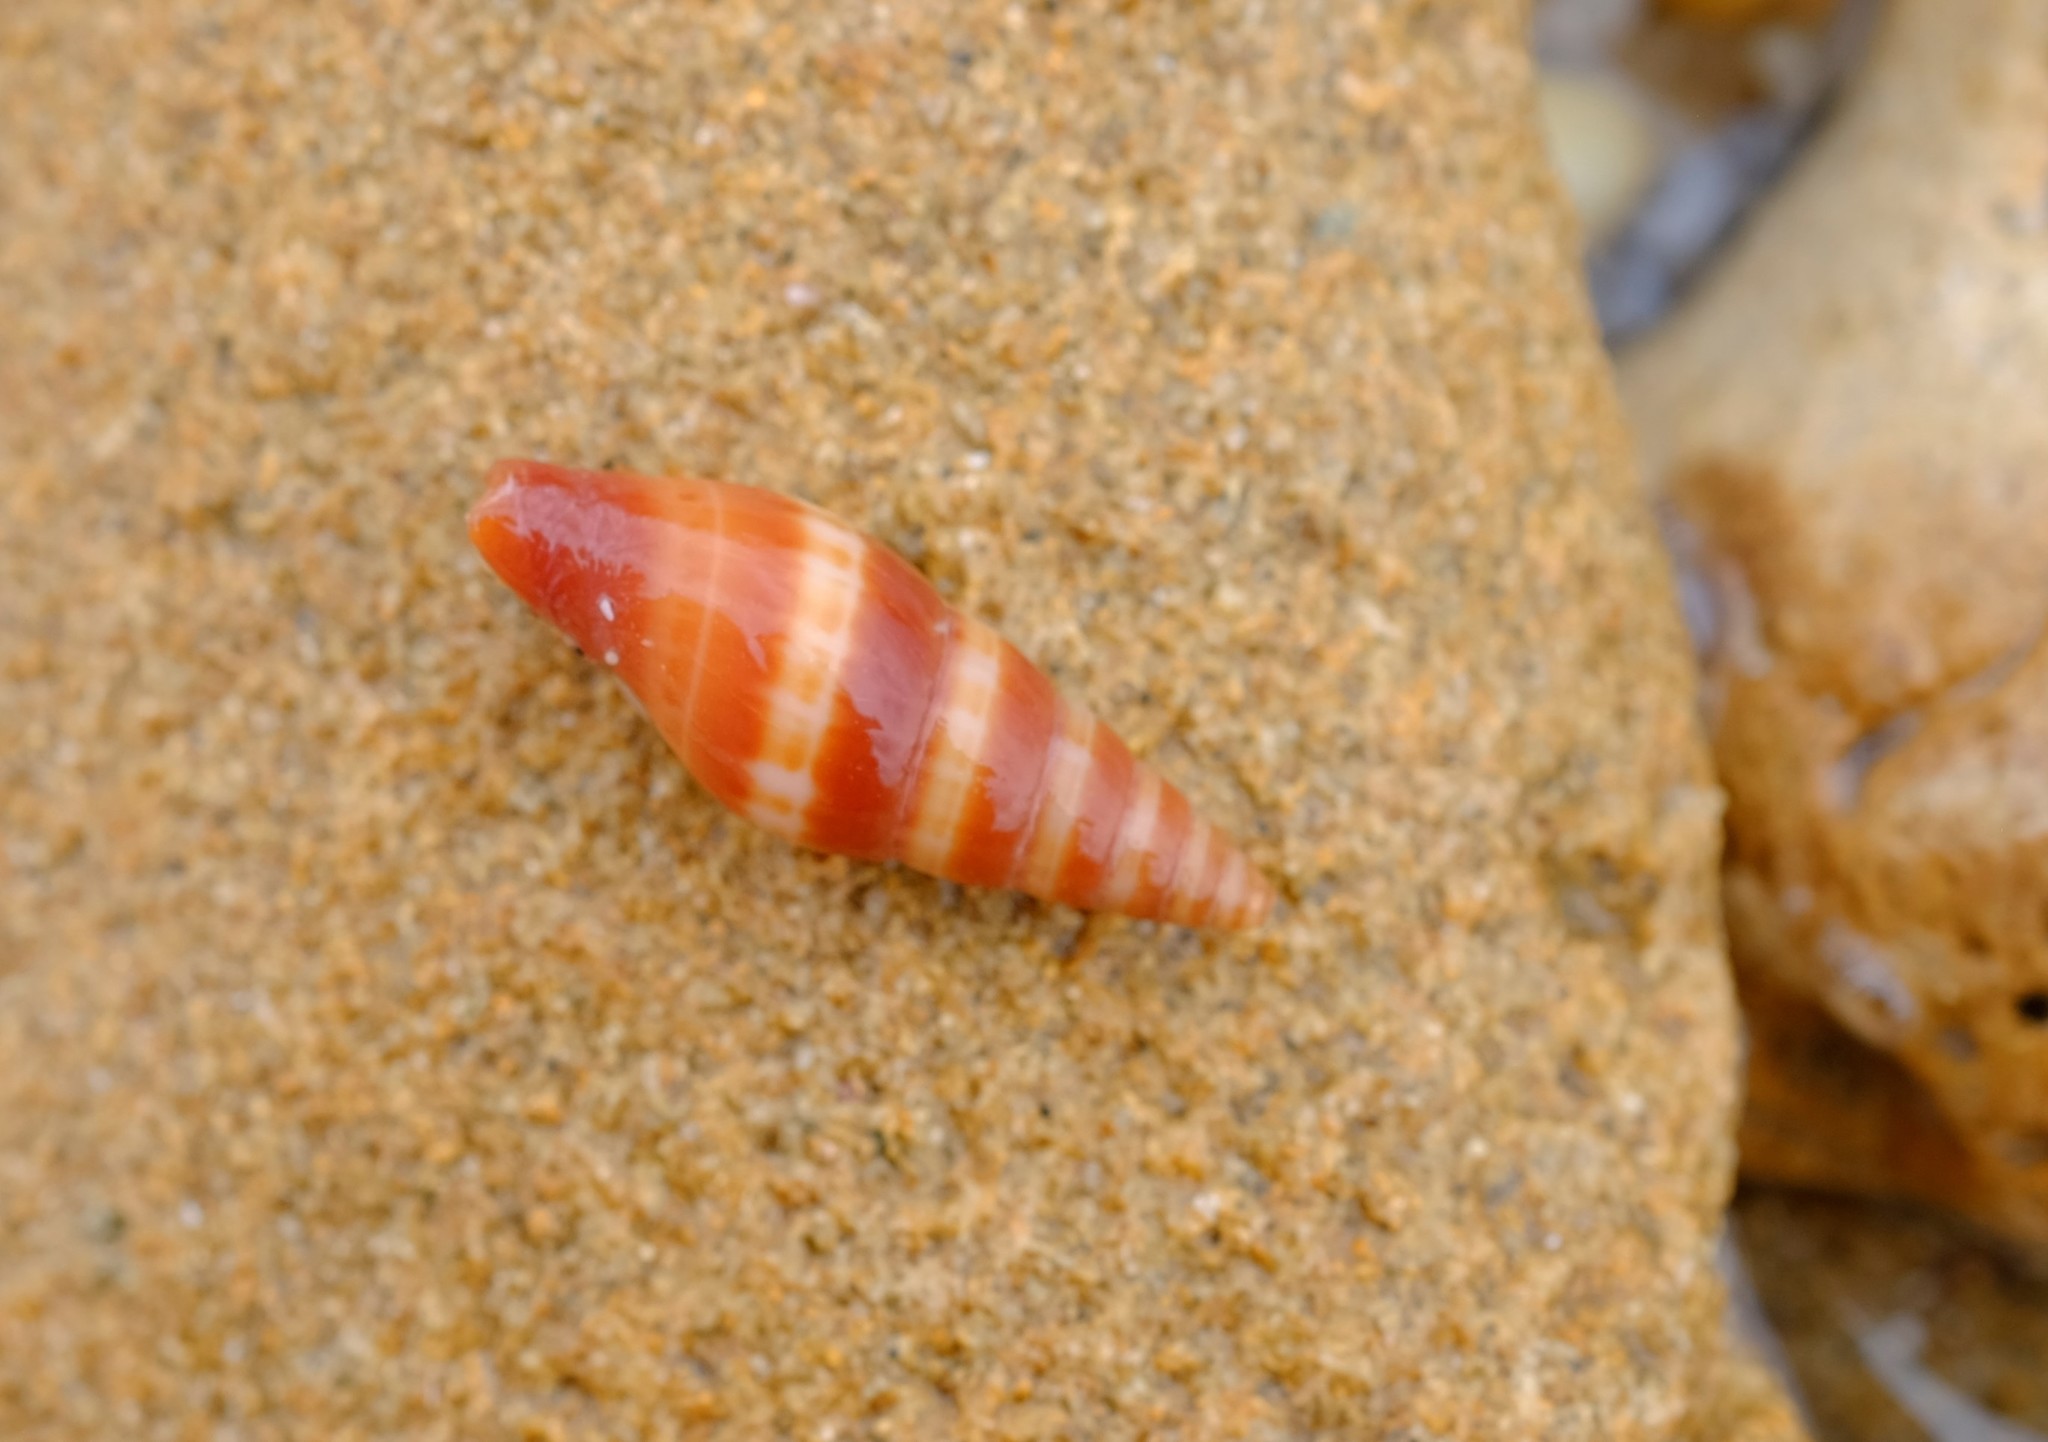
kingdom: Animalia
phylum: Mollusca
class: Gastropoda
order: Neogastropoda
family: Costellariidae
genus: Turriplicifer
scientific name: Turriplicifer australis
